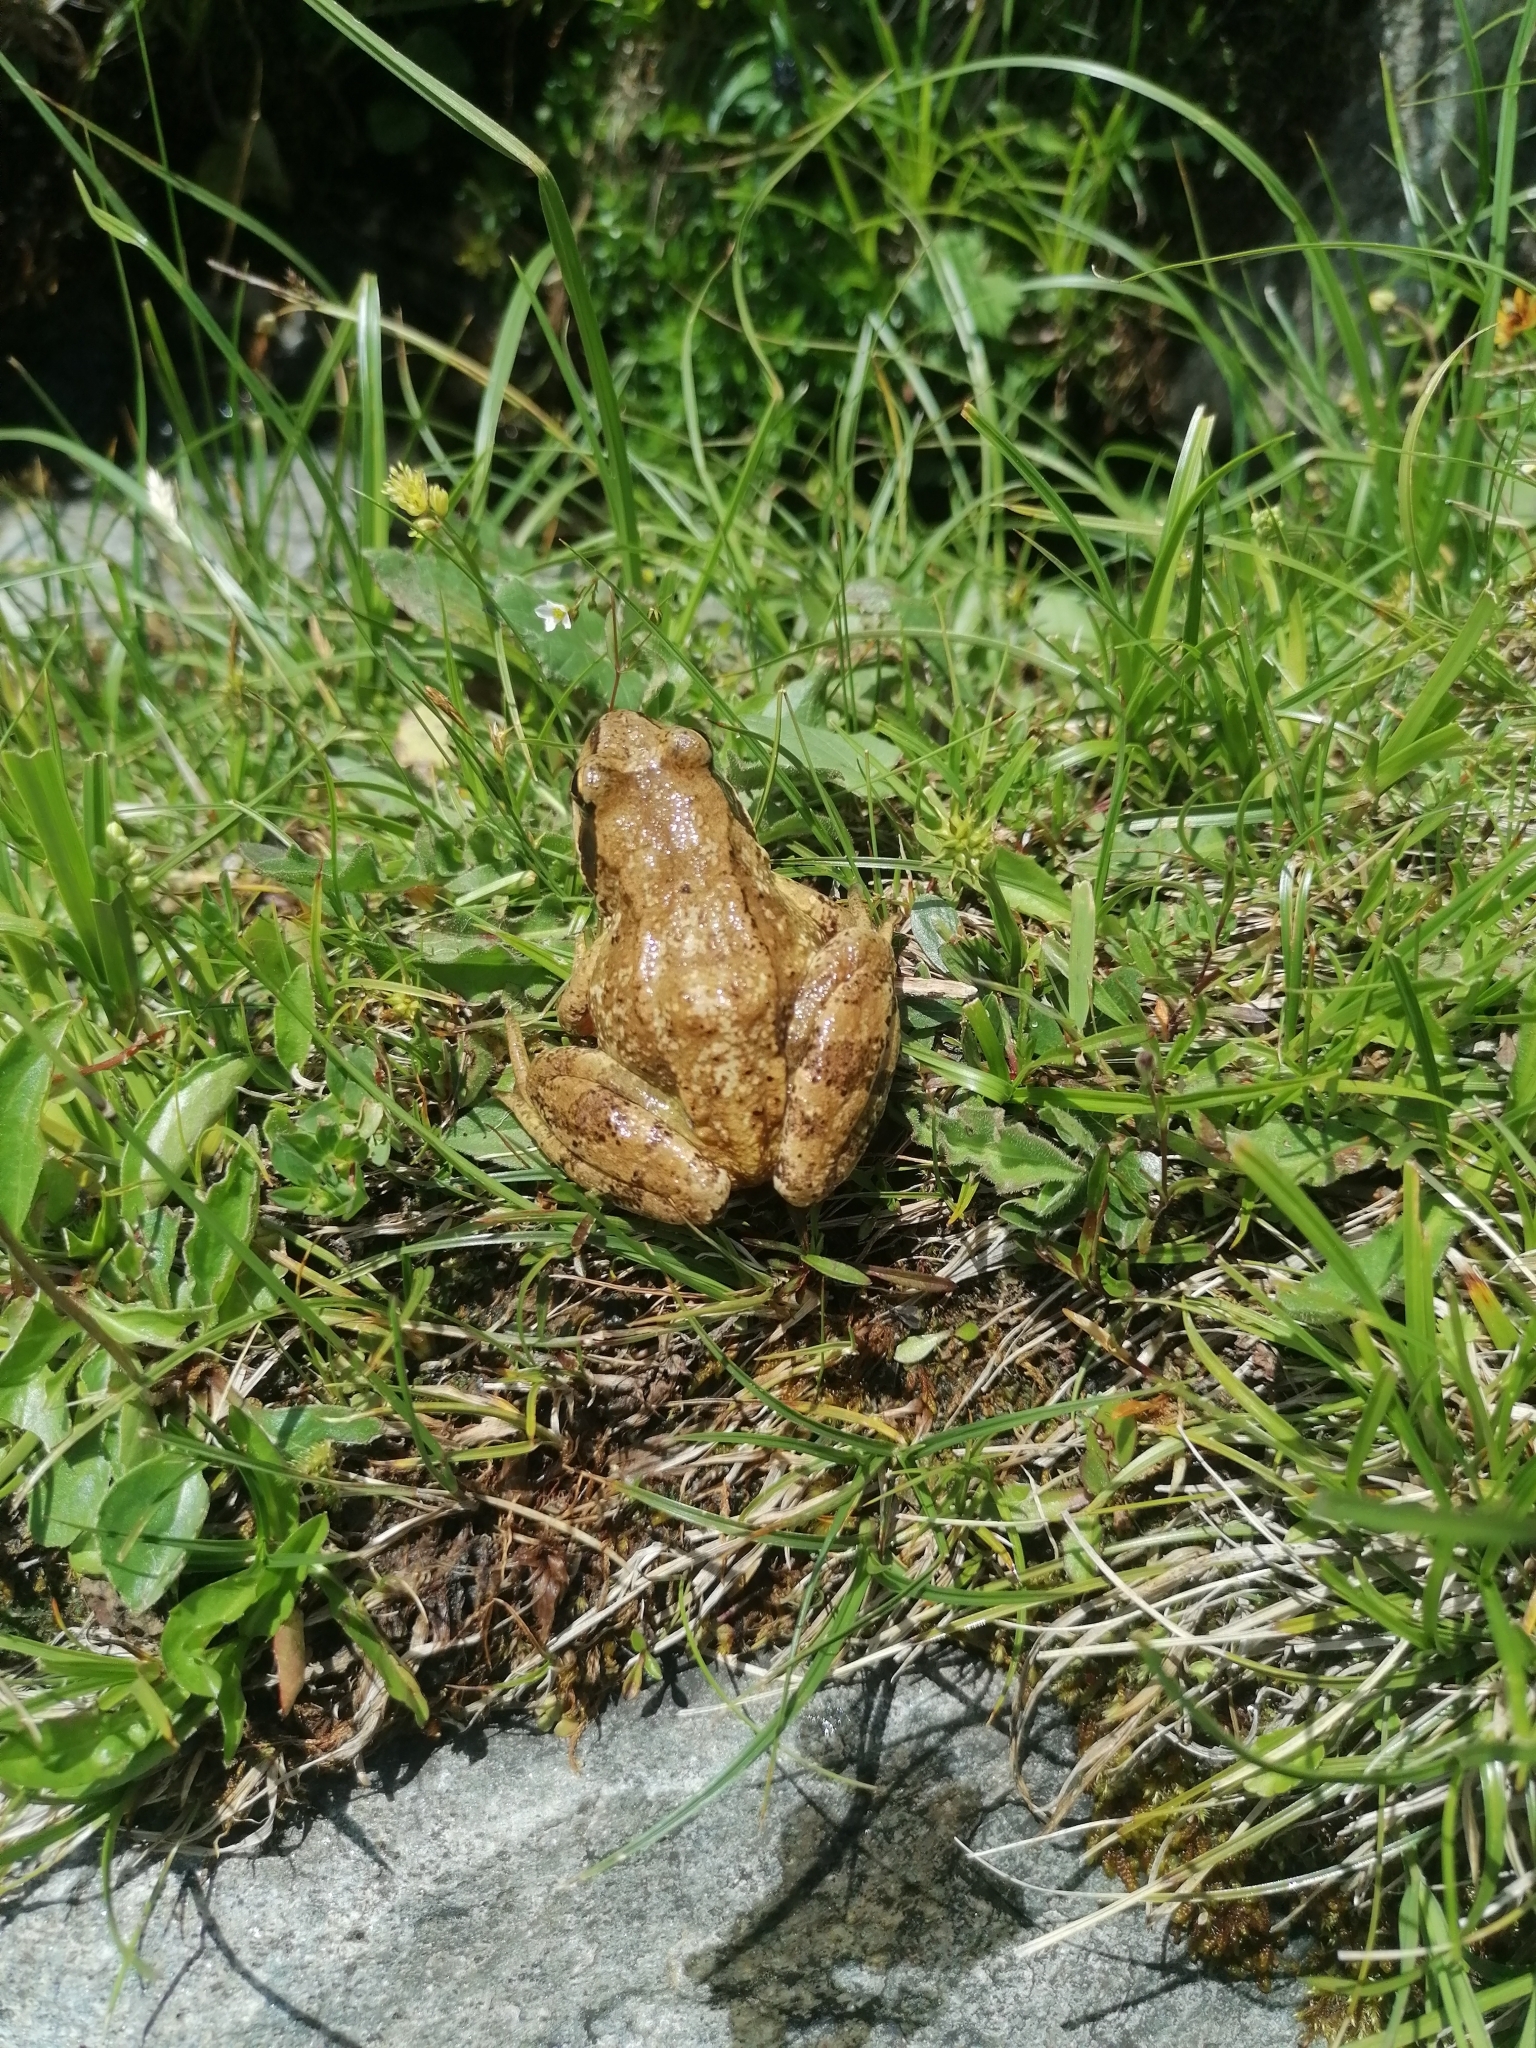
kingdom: Animalia
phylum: Chordata
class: Amphibia
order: Anura
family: Ranidae
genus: Rana
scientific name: Rana temporaria
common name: Common frog
